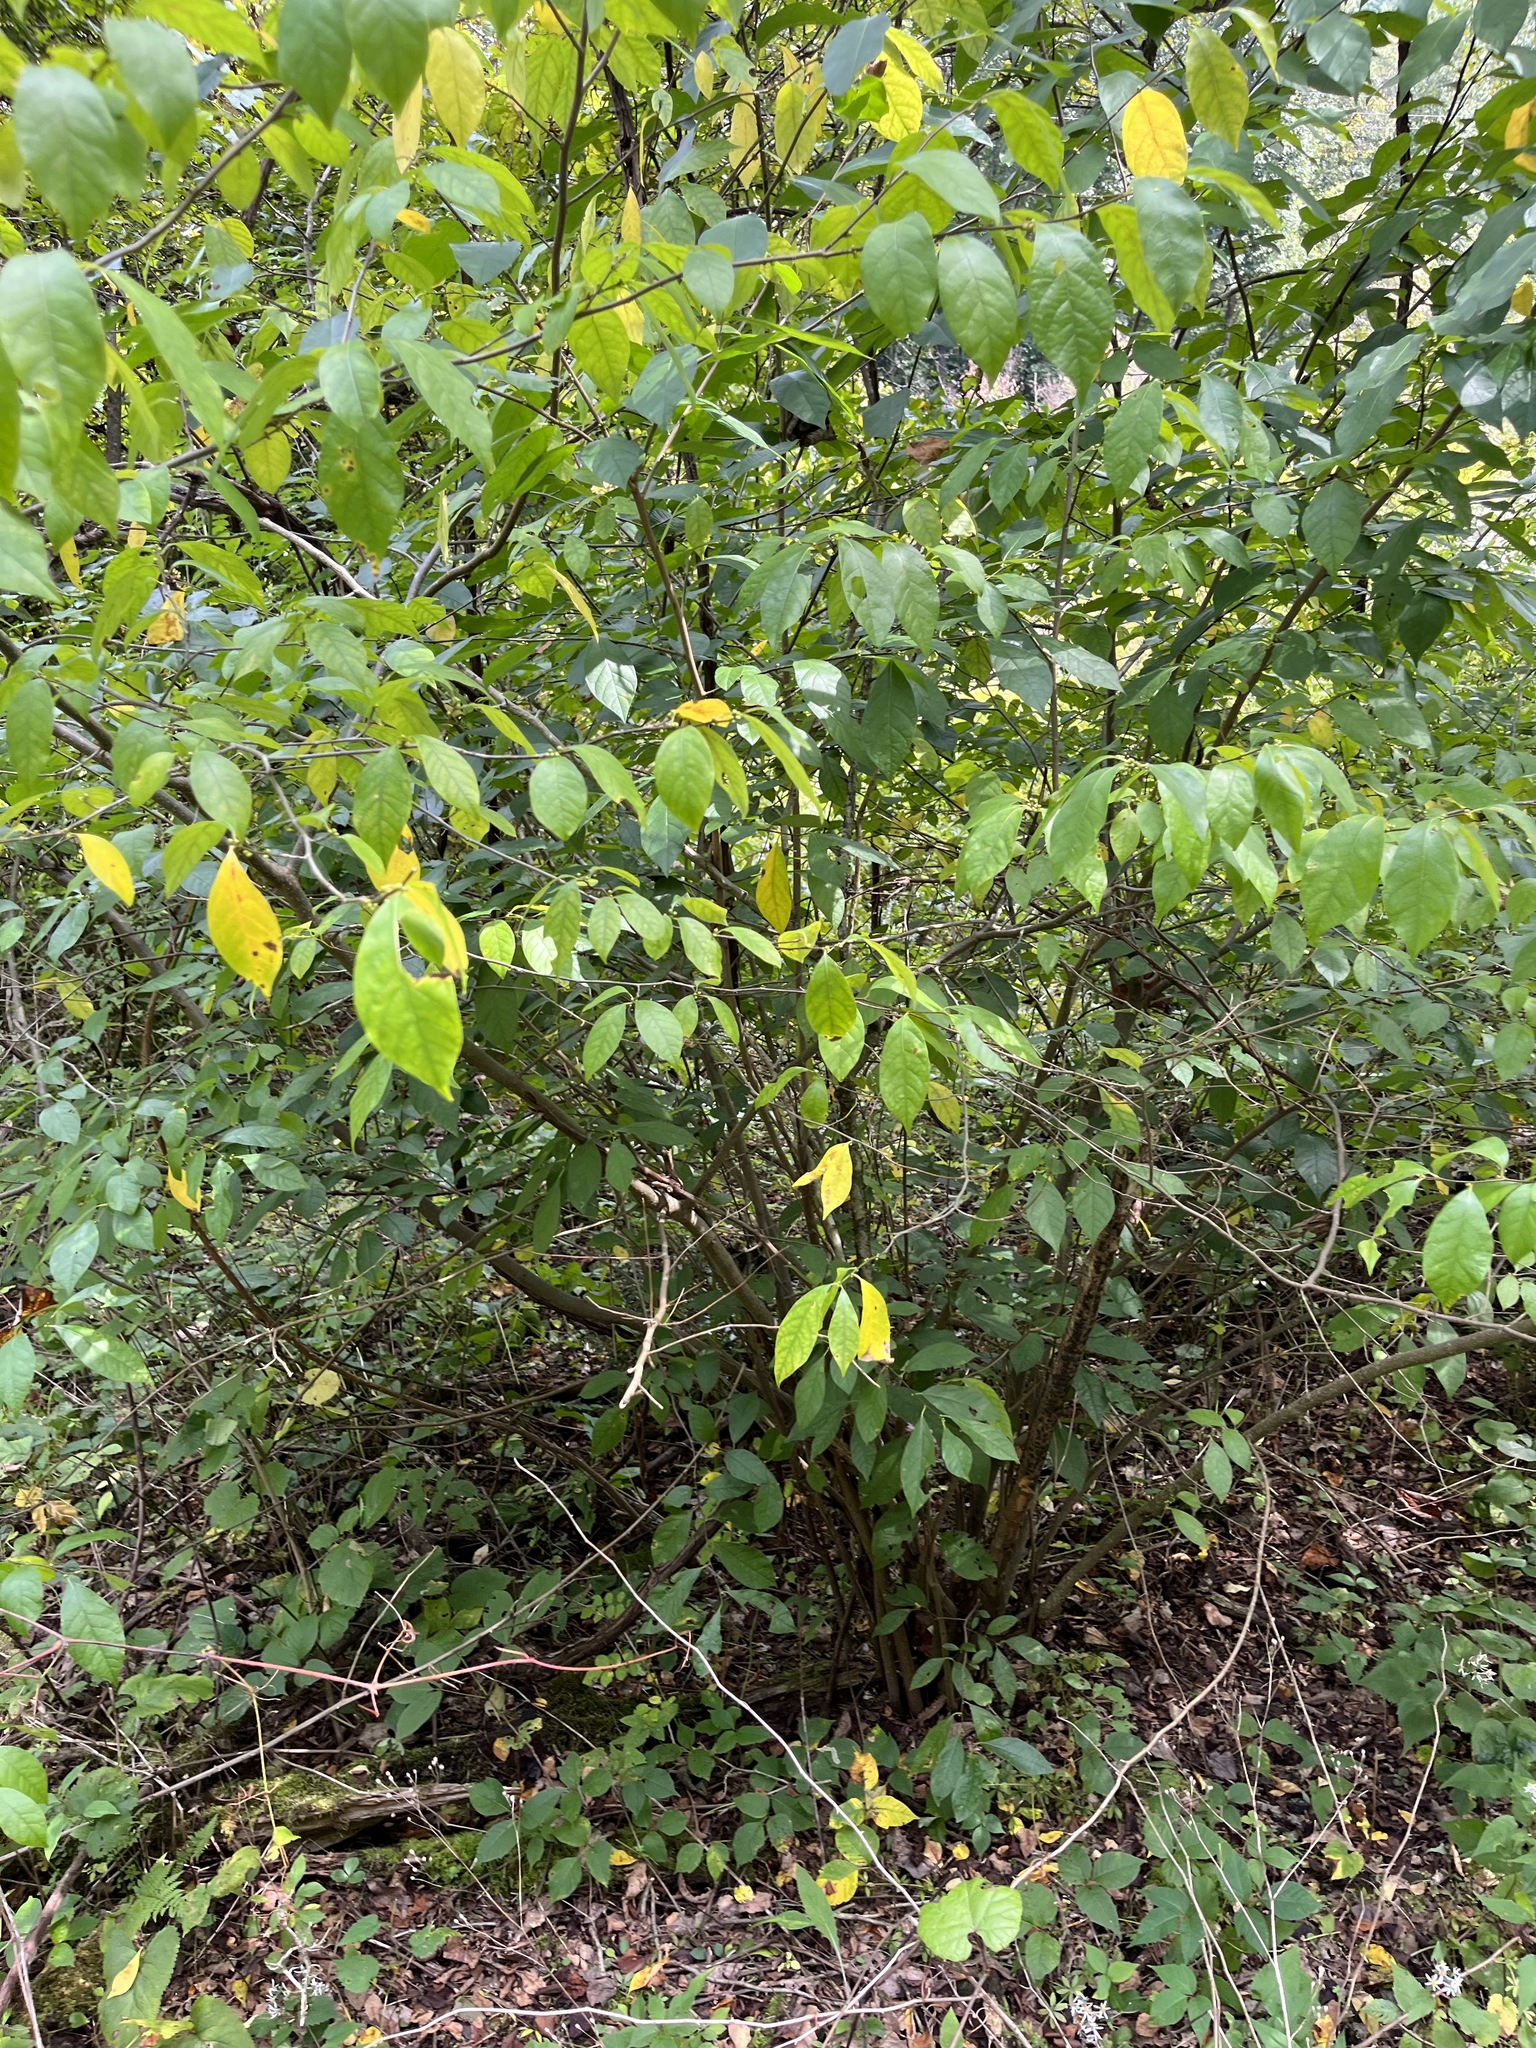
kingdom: Plantae
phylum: Tracheophyta
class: Magnoliopsida
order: Laurales
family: Lauraceae
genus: Lindera
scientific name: Lindera benzoin
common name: Spicebush
